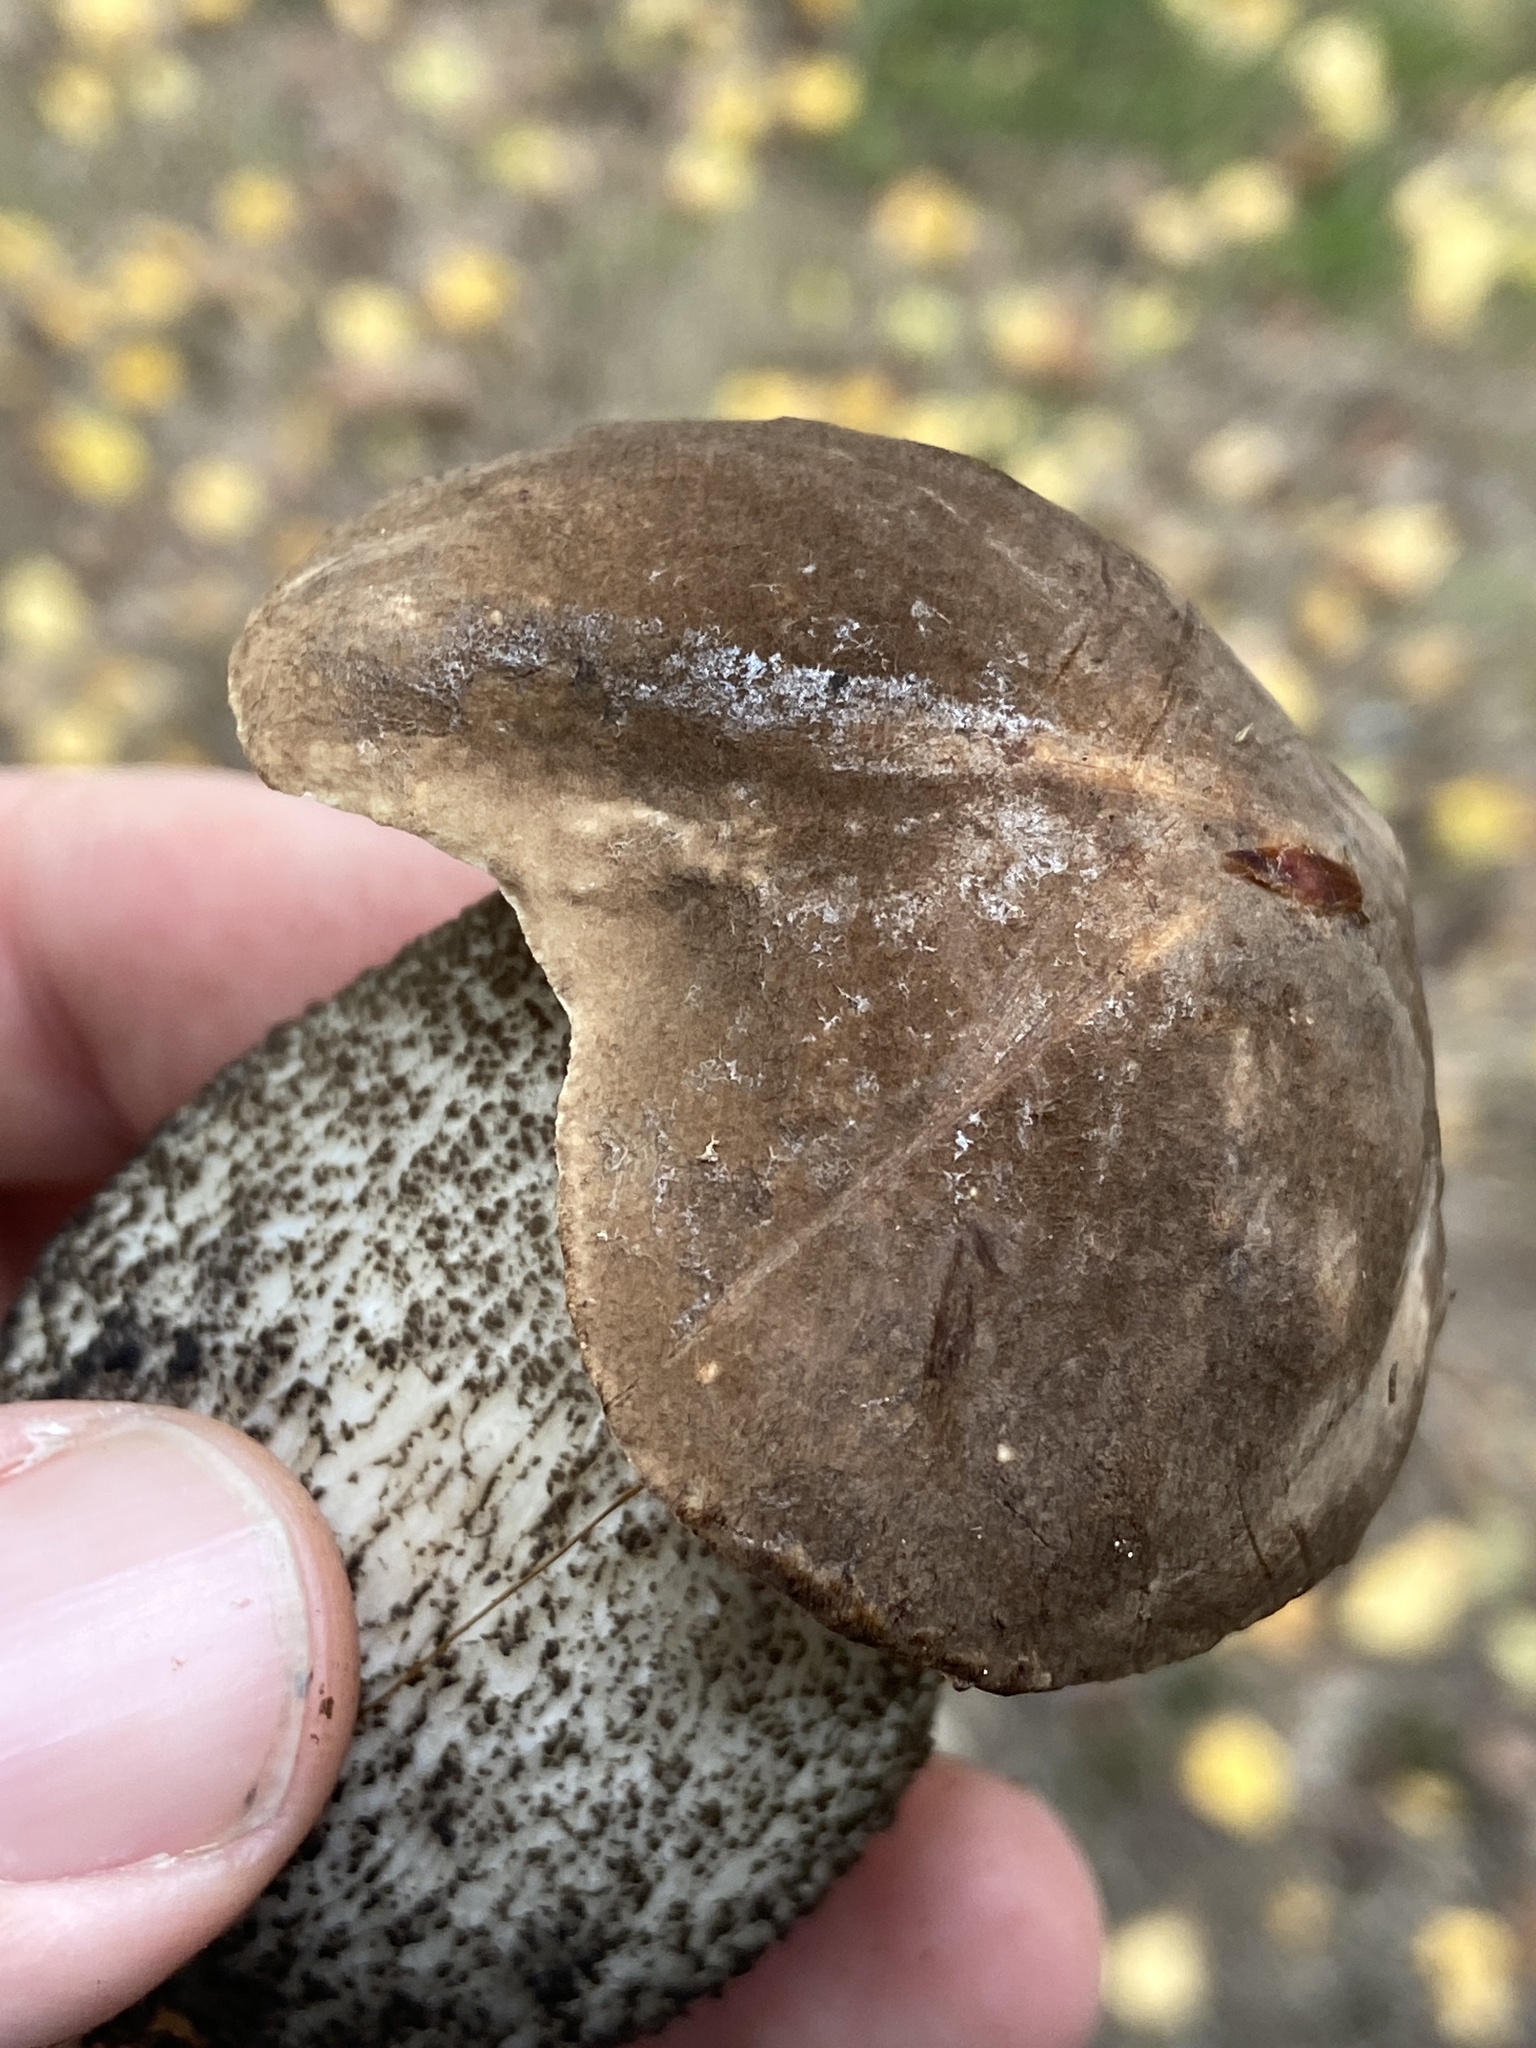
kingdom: Fungi
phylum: Basidiomycota
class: Agaricomycetes
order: Boletales
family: Boletaceae
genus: Leccinum
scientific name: Leccinum scabrum
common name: Blushing bolete
